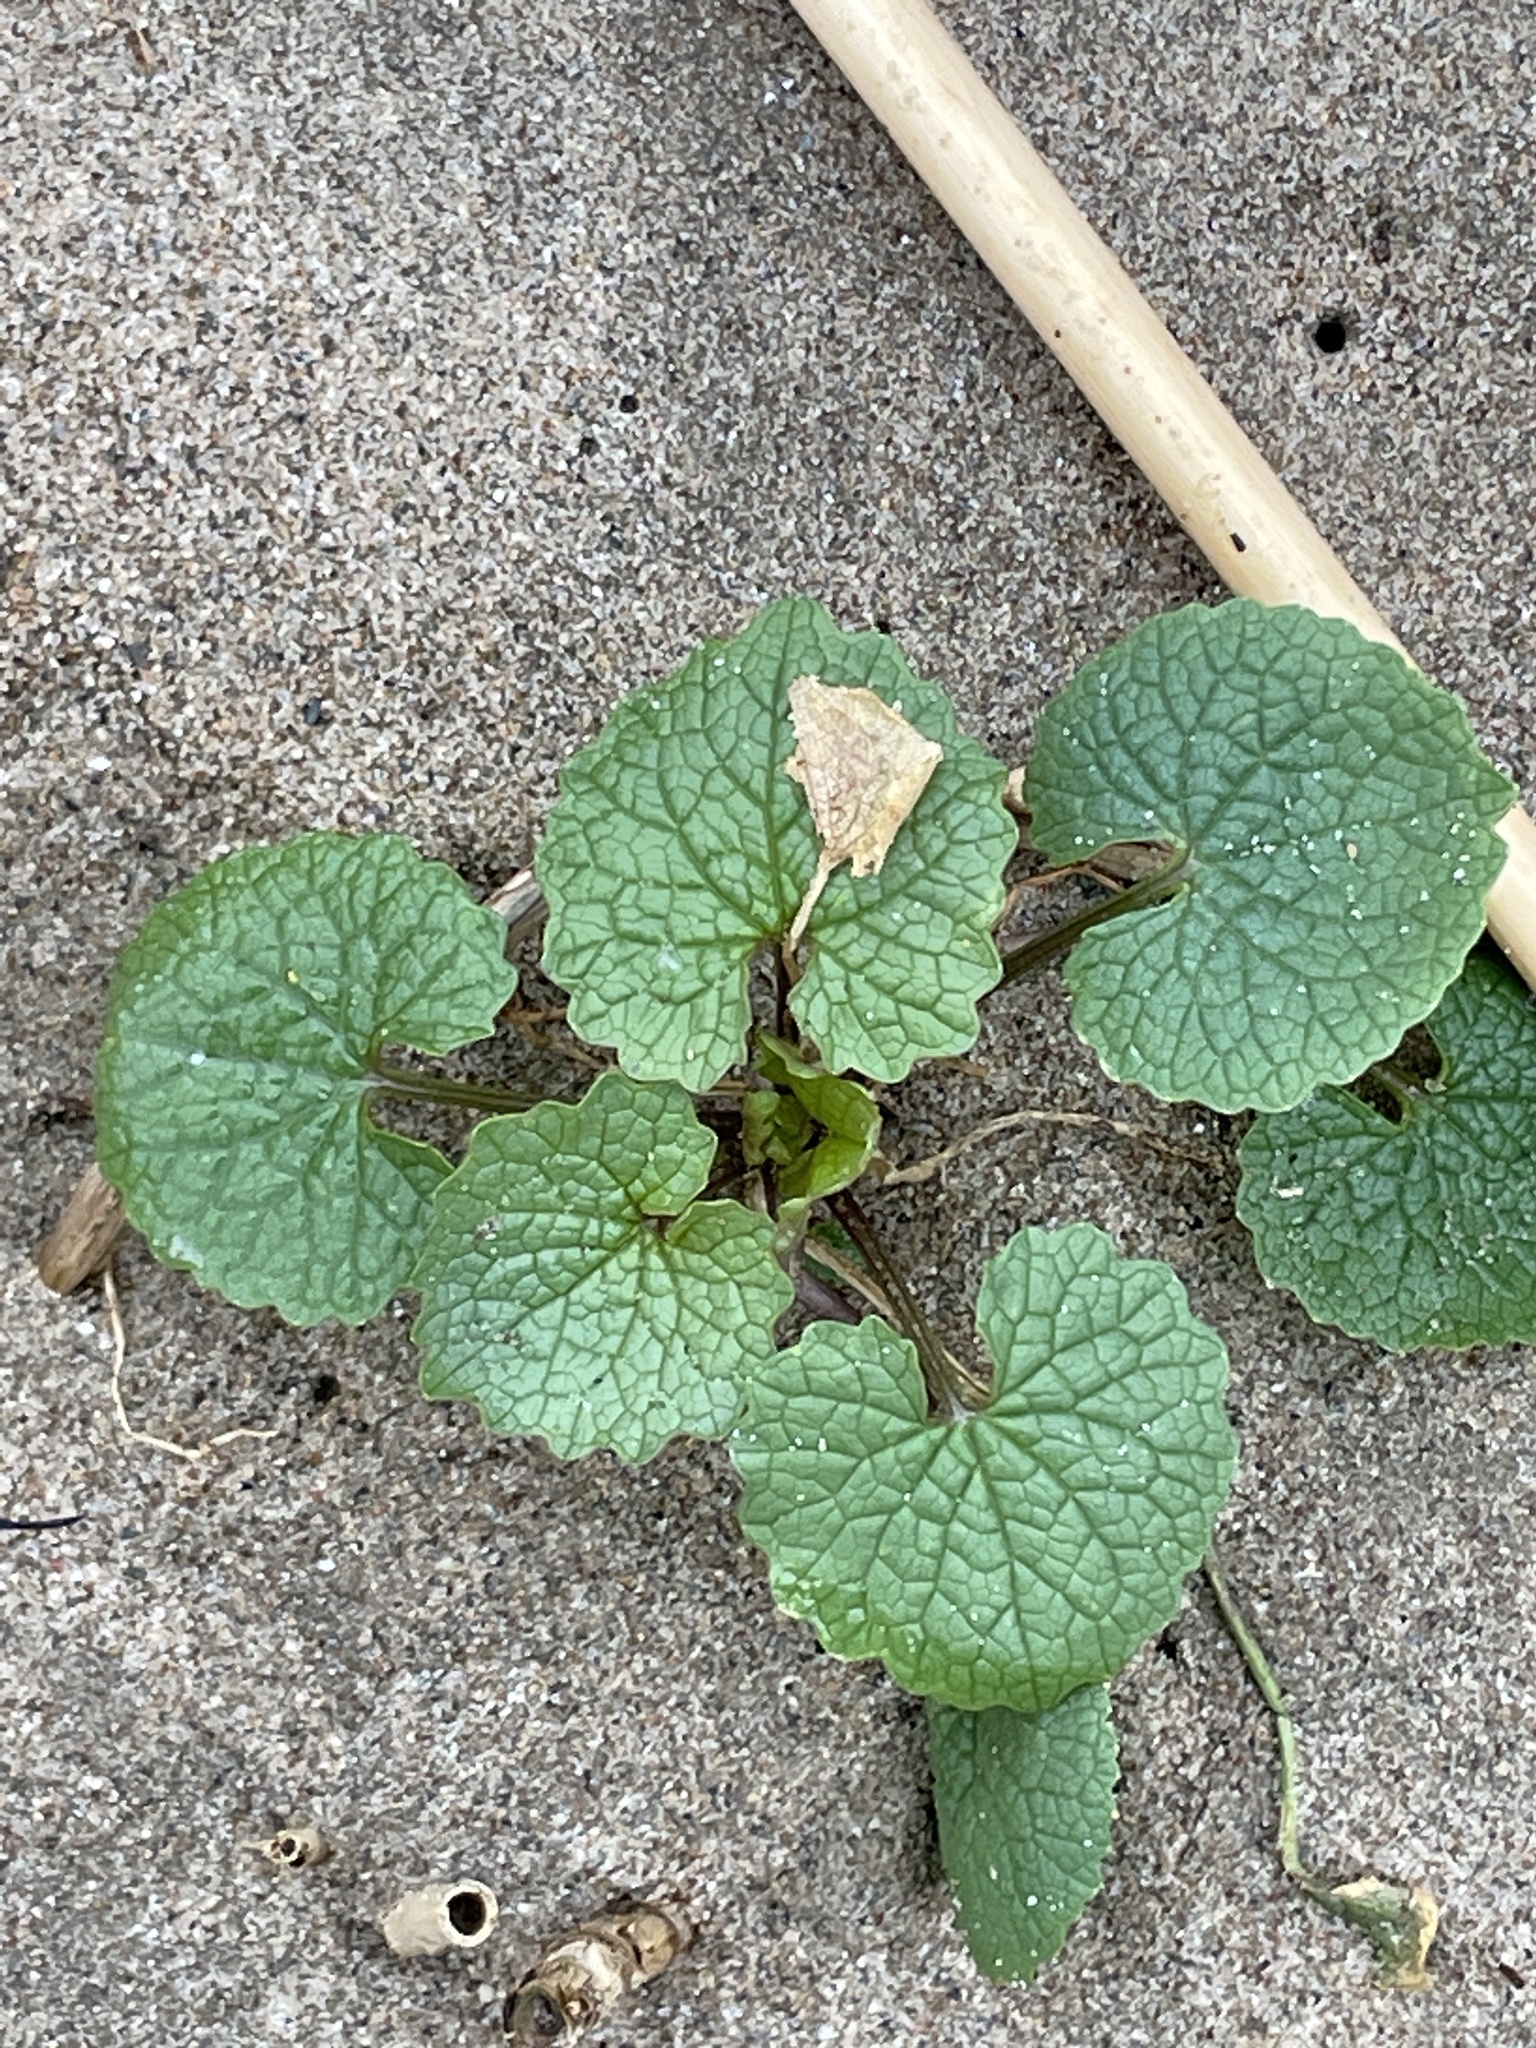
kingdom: Plantae
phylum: Tracheophyta
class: Magnoliopsida
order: Brassicales
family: Brassicaceae
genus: Alliaria
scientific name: Alliaria petiolata
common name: Garlic mustard
